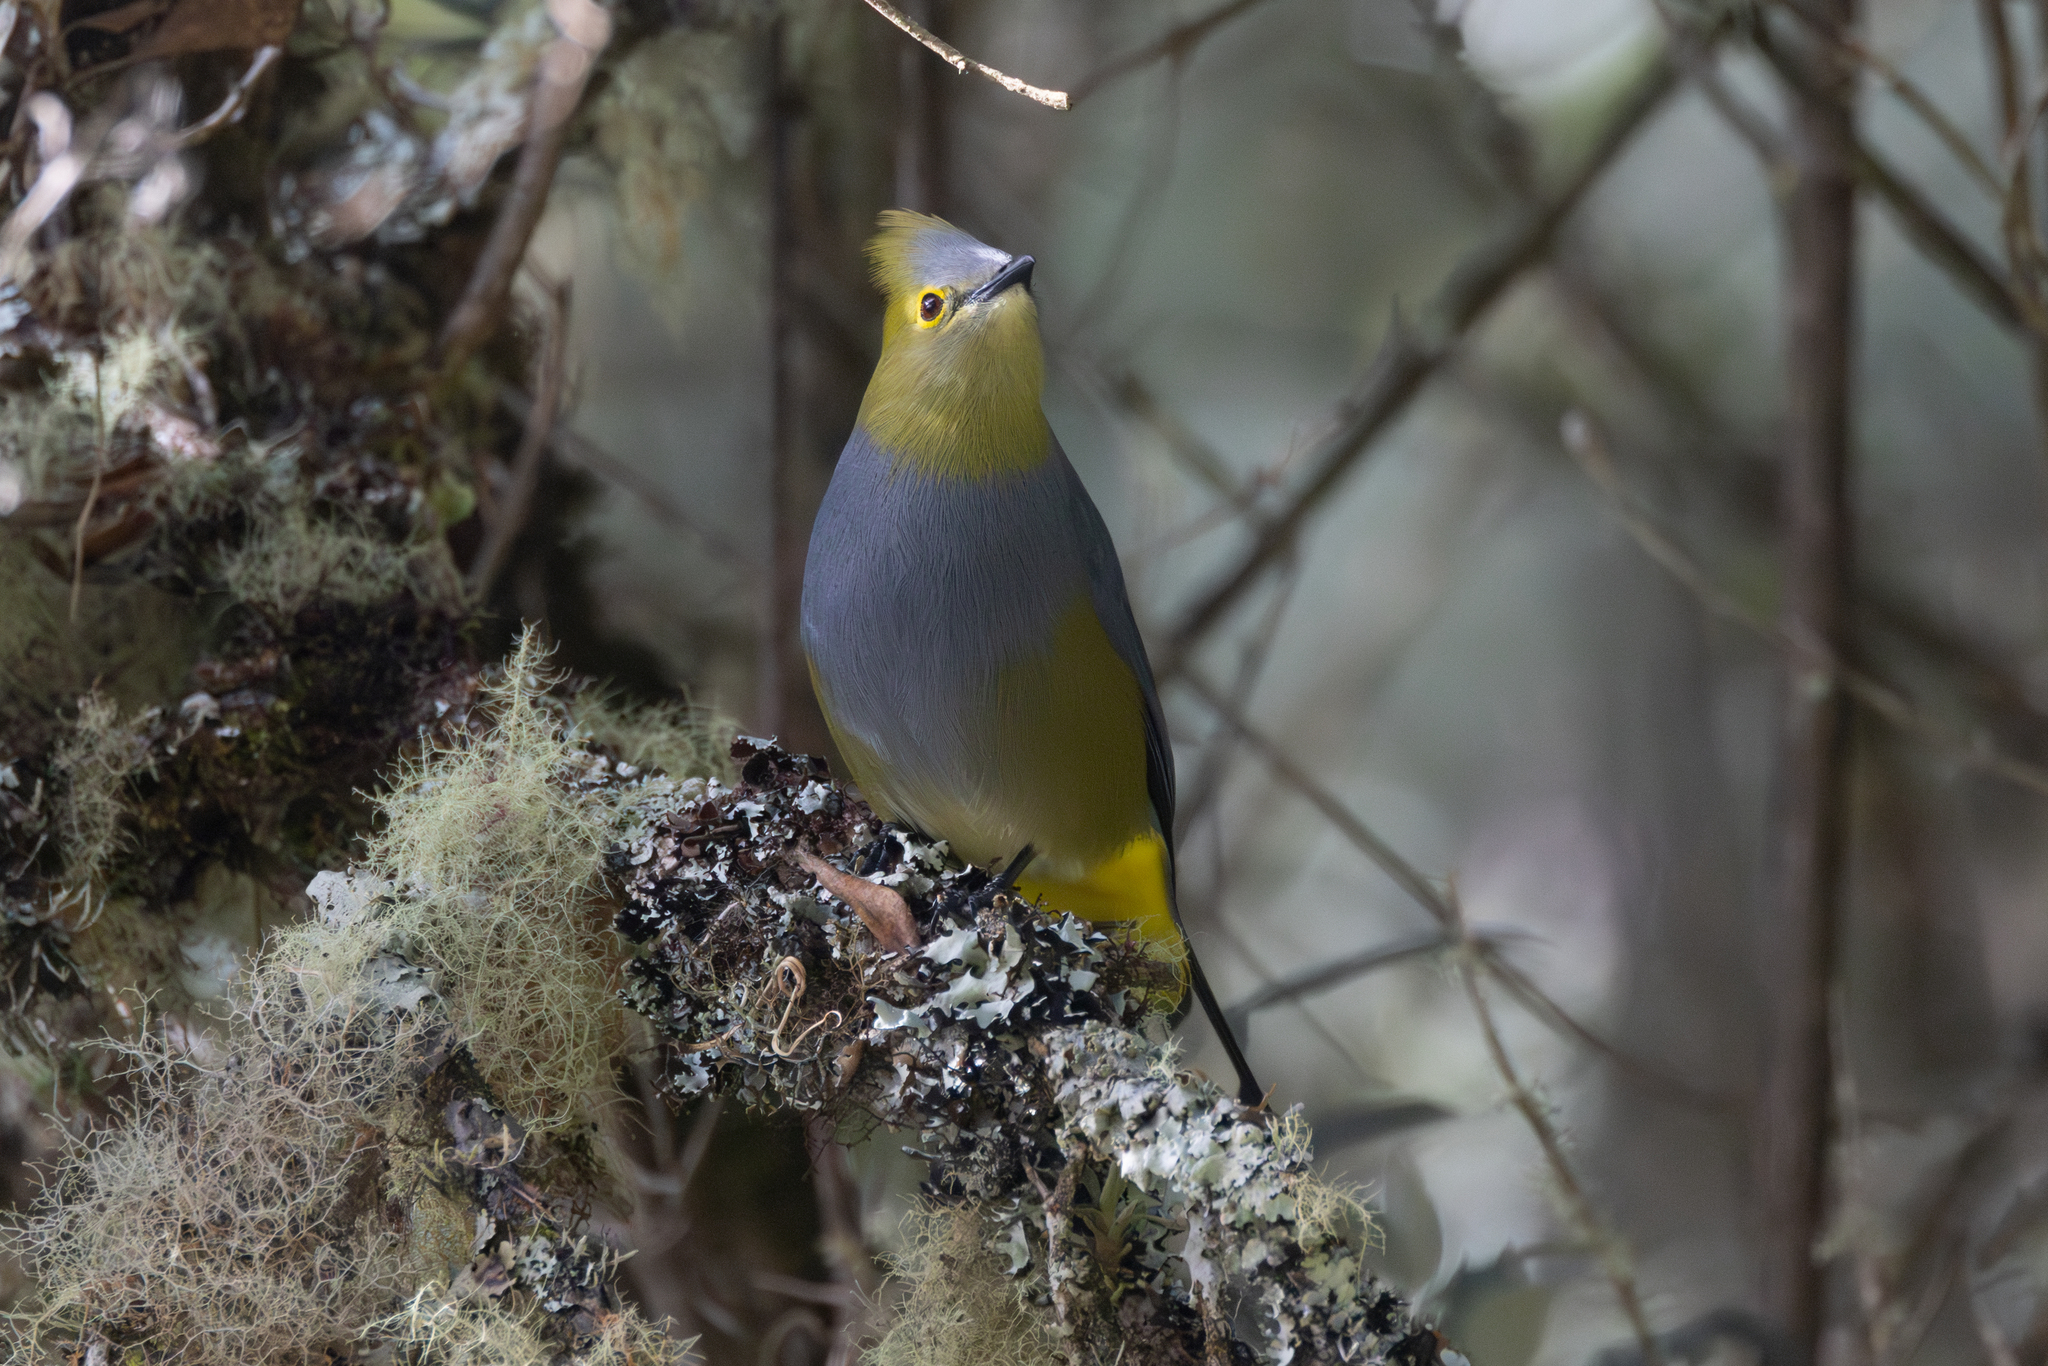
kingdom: Animalia
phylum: Chordata
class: Aves
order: Passeriformes
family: Ptilogonatidae
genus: Ptilogonys
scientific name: Ptilogonys caudatus
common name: Long-tailed silky-flycatcher
